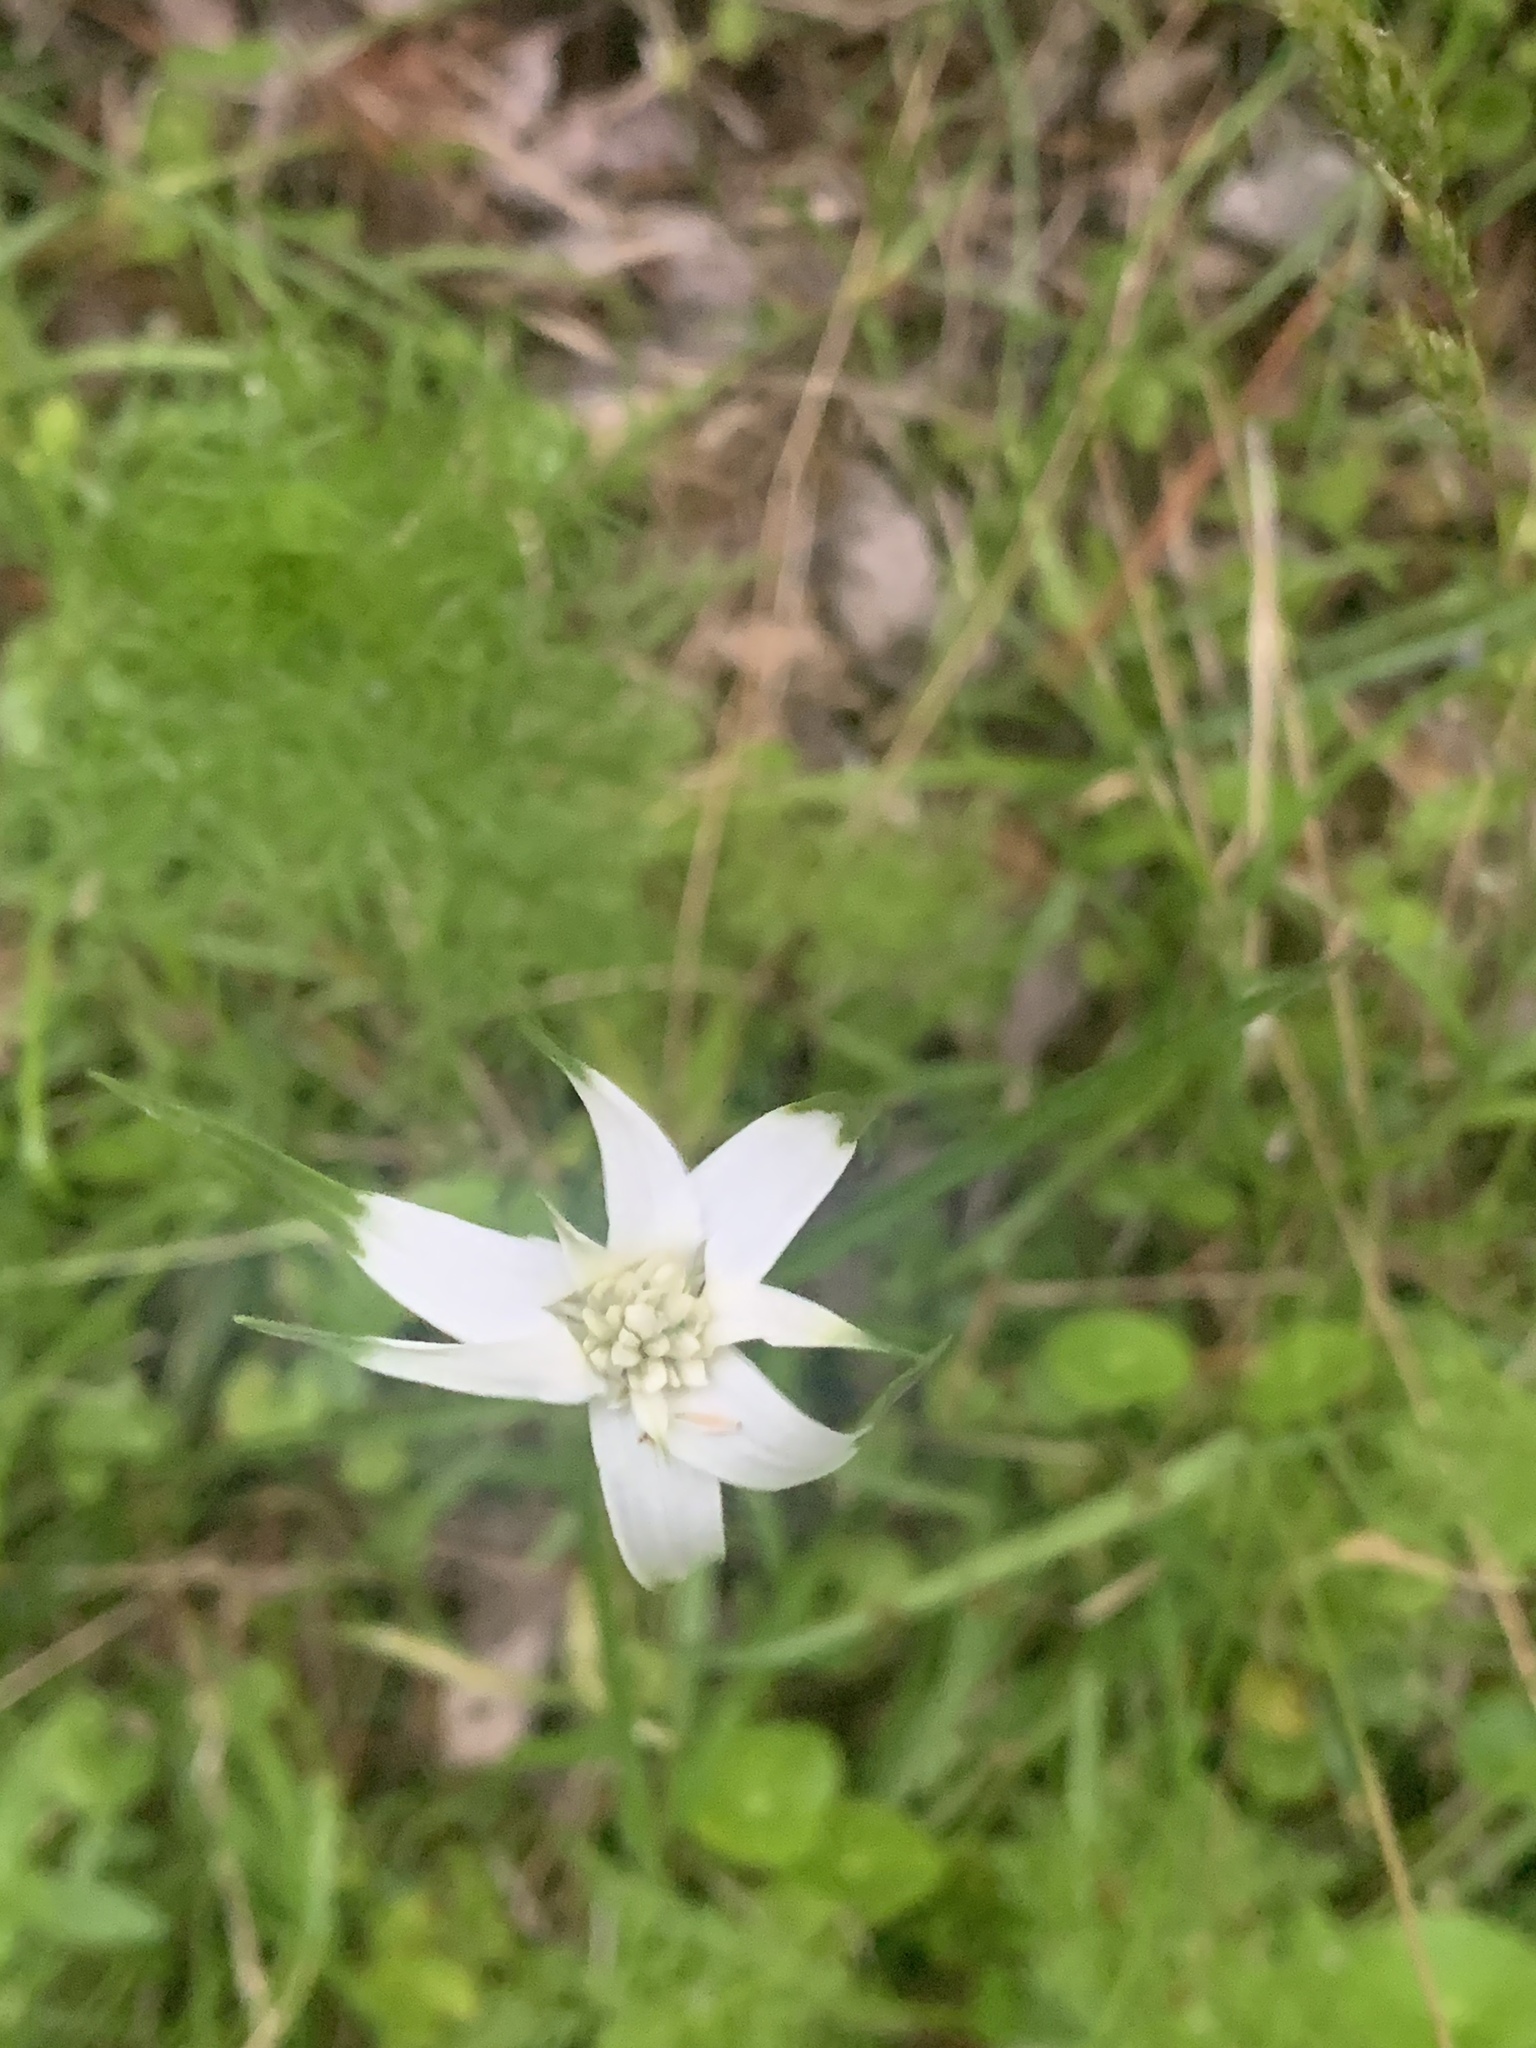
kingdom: Plantae
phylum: Tracheophyta
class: Liliopsida
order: Poales
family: Cyperaceae
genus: Rhynchospora
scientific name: Rhynchospora colorata
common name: Star sedge
